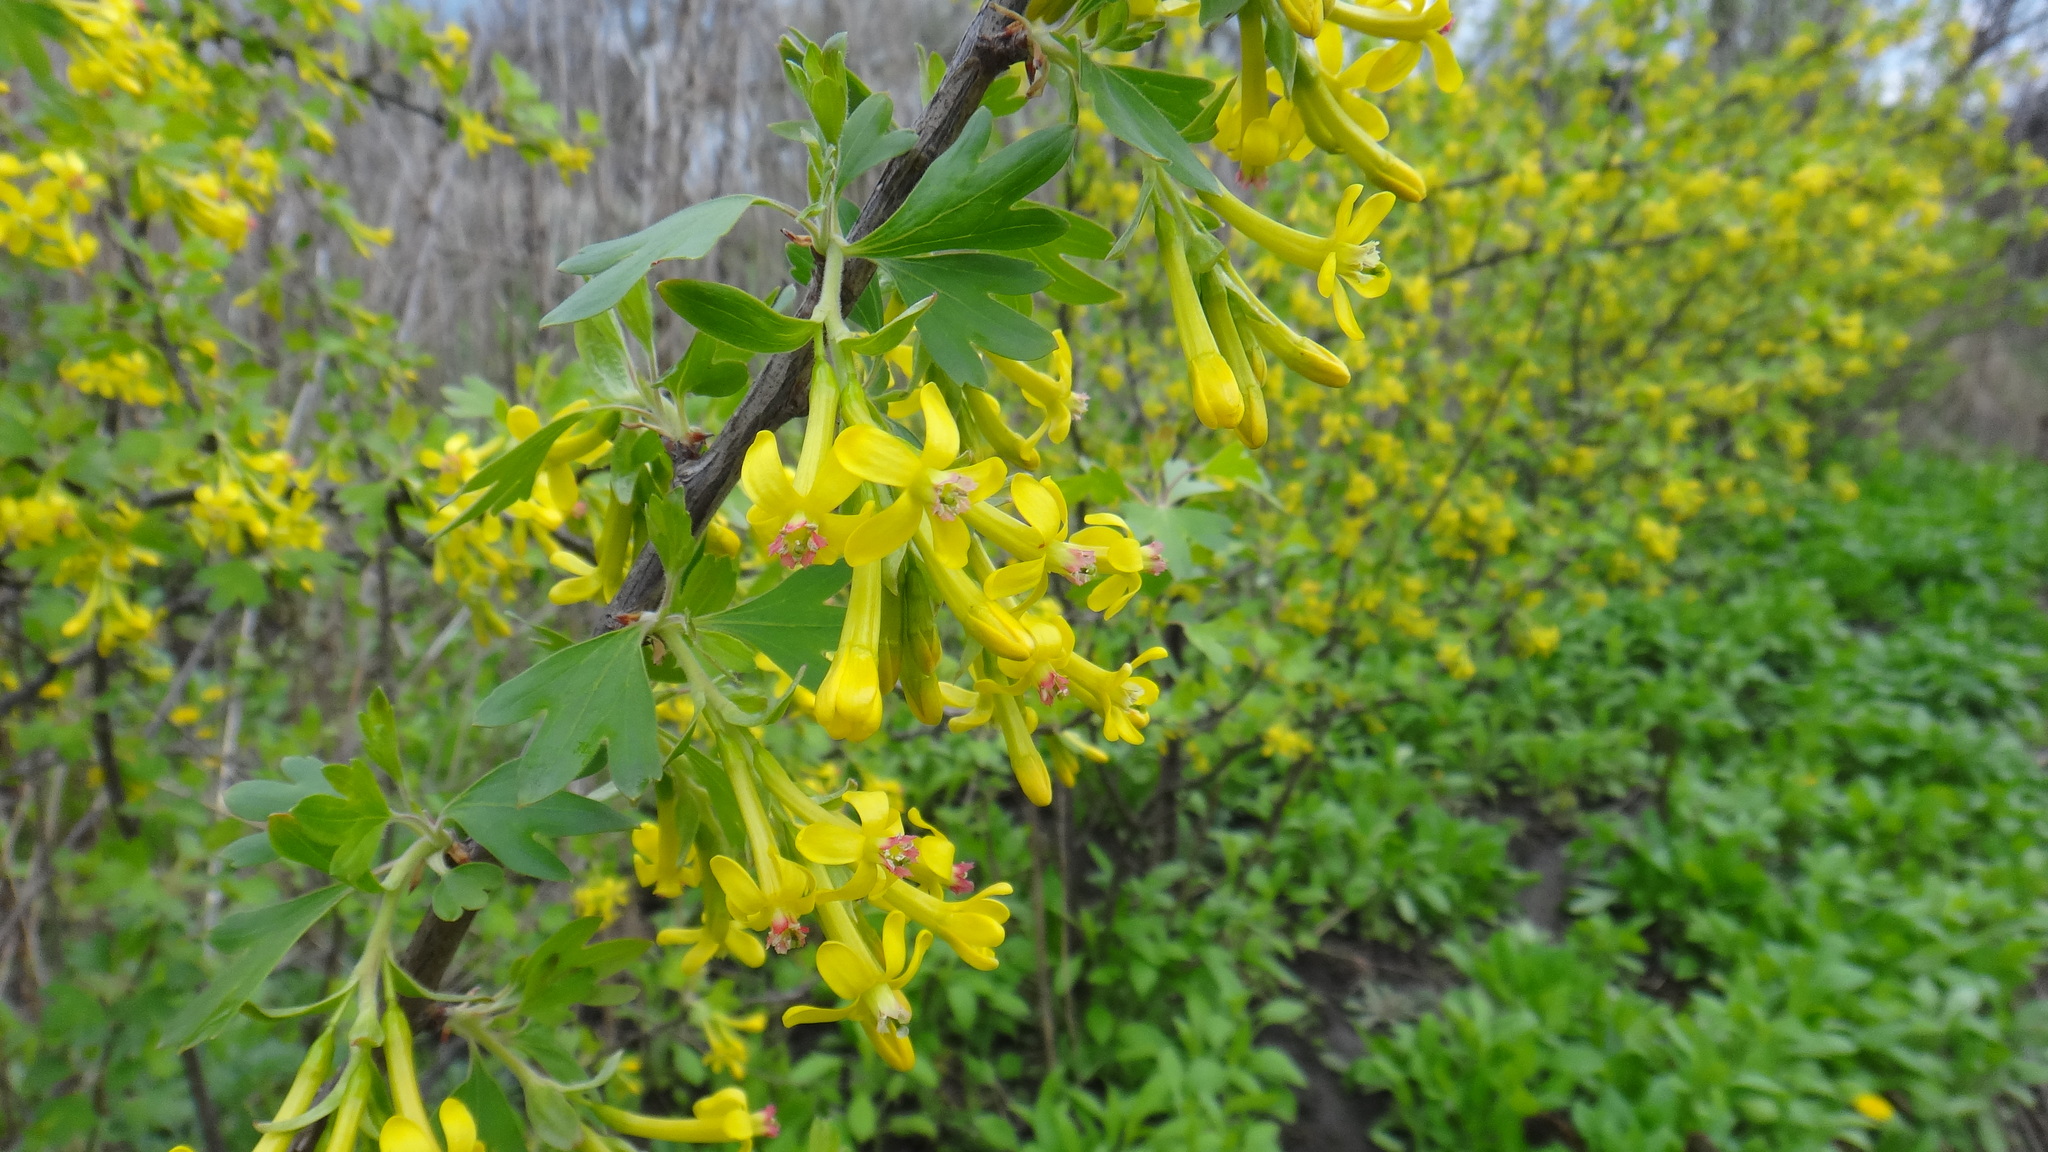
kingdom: Plantae
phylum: Tracheophyta
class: Magnoliopsida
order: Saxifragales
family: Grossulariaceae
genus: Ribes
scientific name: Ribes aureum
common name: Golden currant
